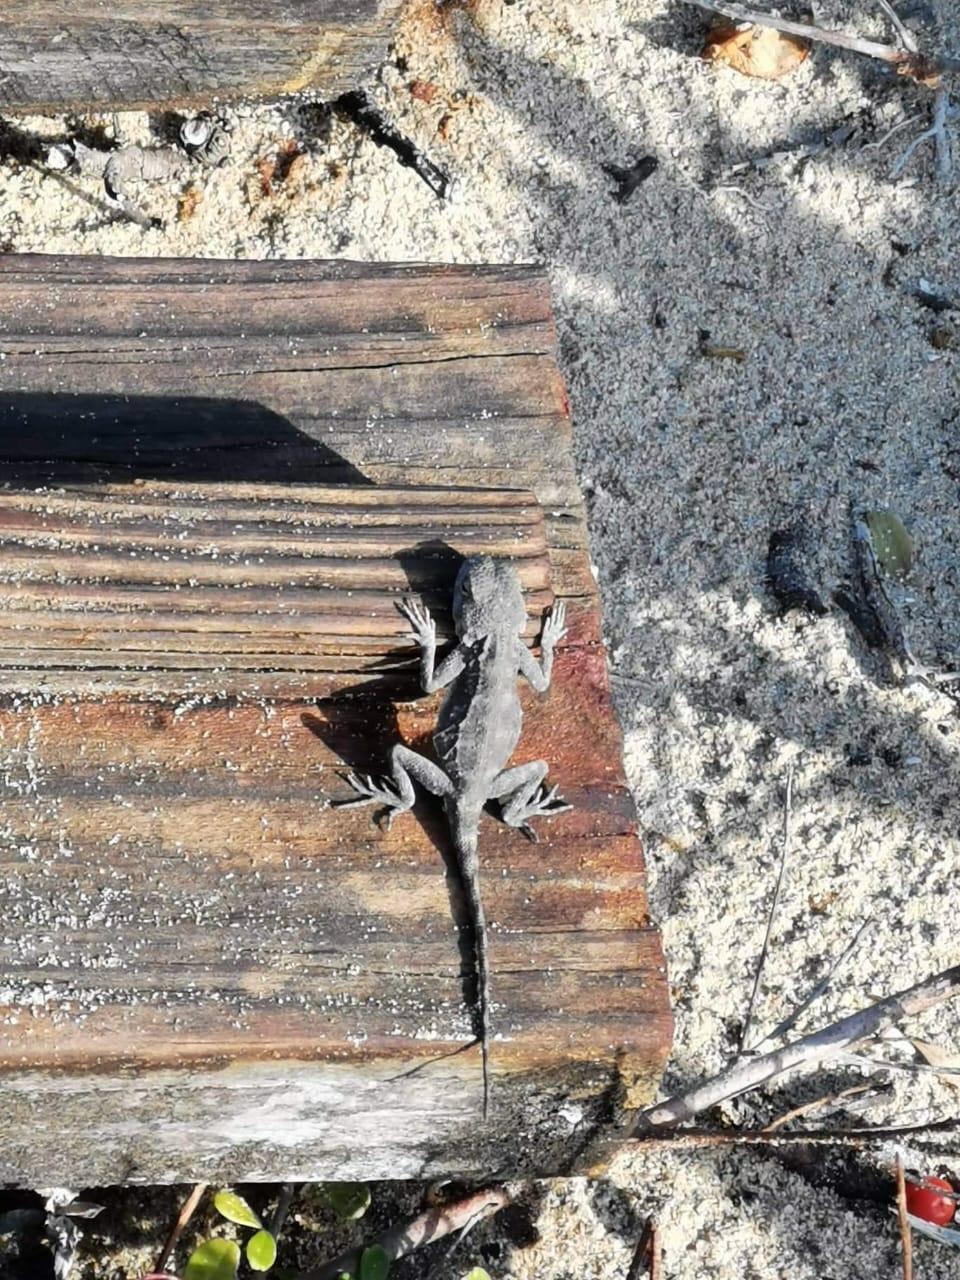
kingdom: Animalia
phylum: Chordata
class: Squamata
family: Agamidae
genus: Agama
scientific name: Agama atra
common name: Southern african rock agama
